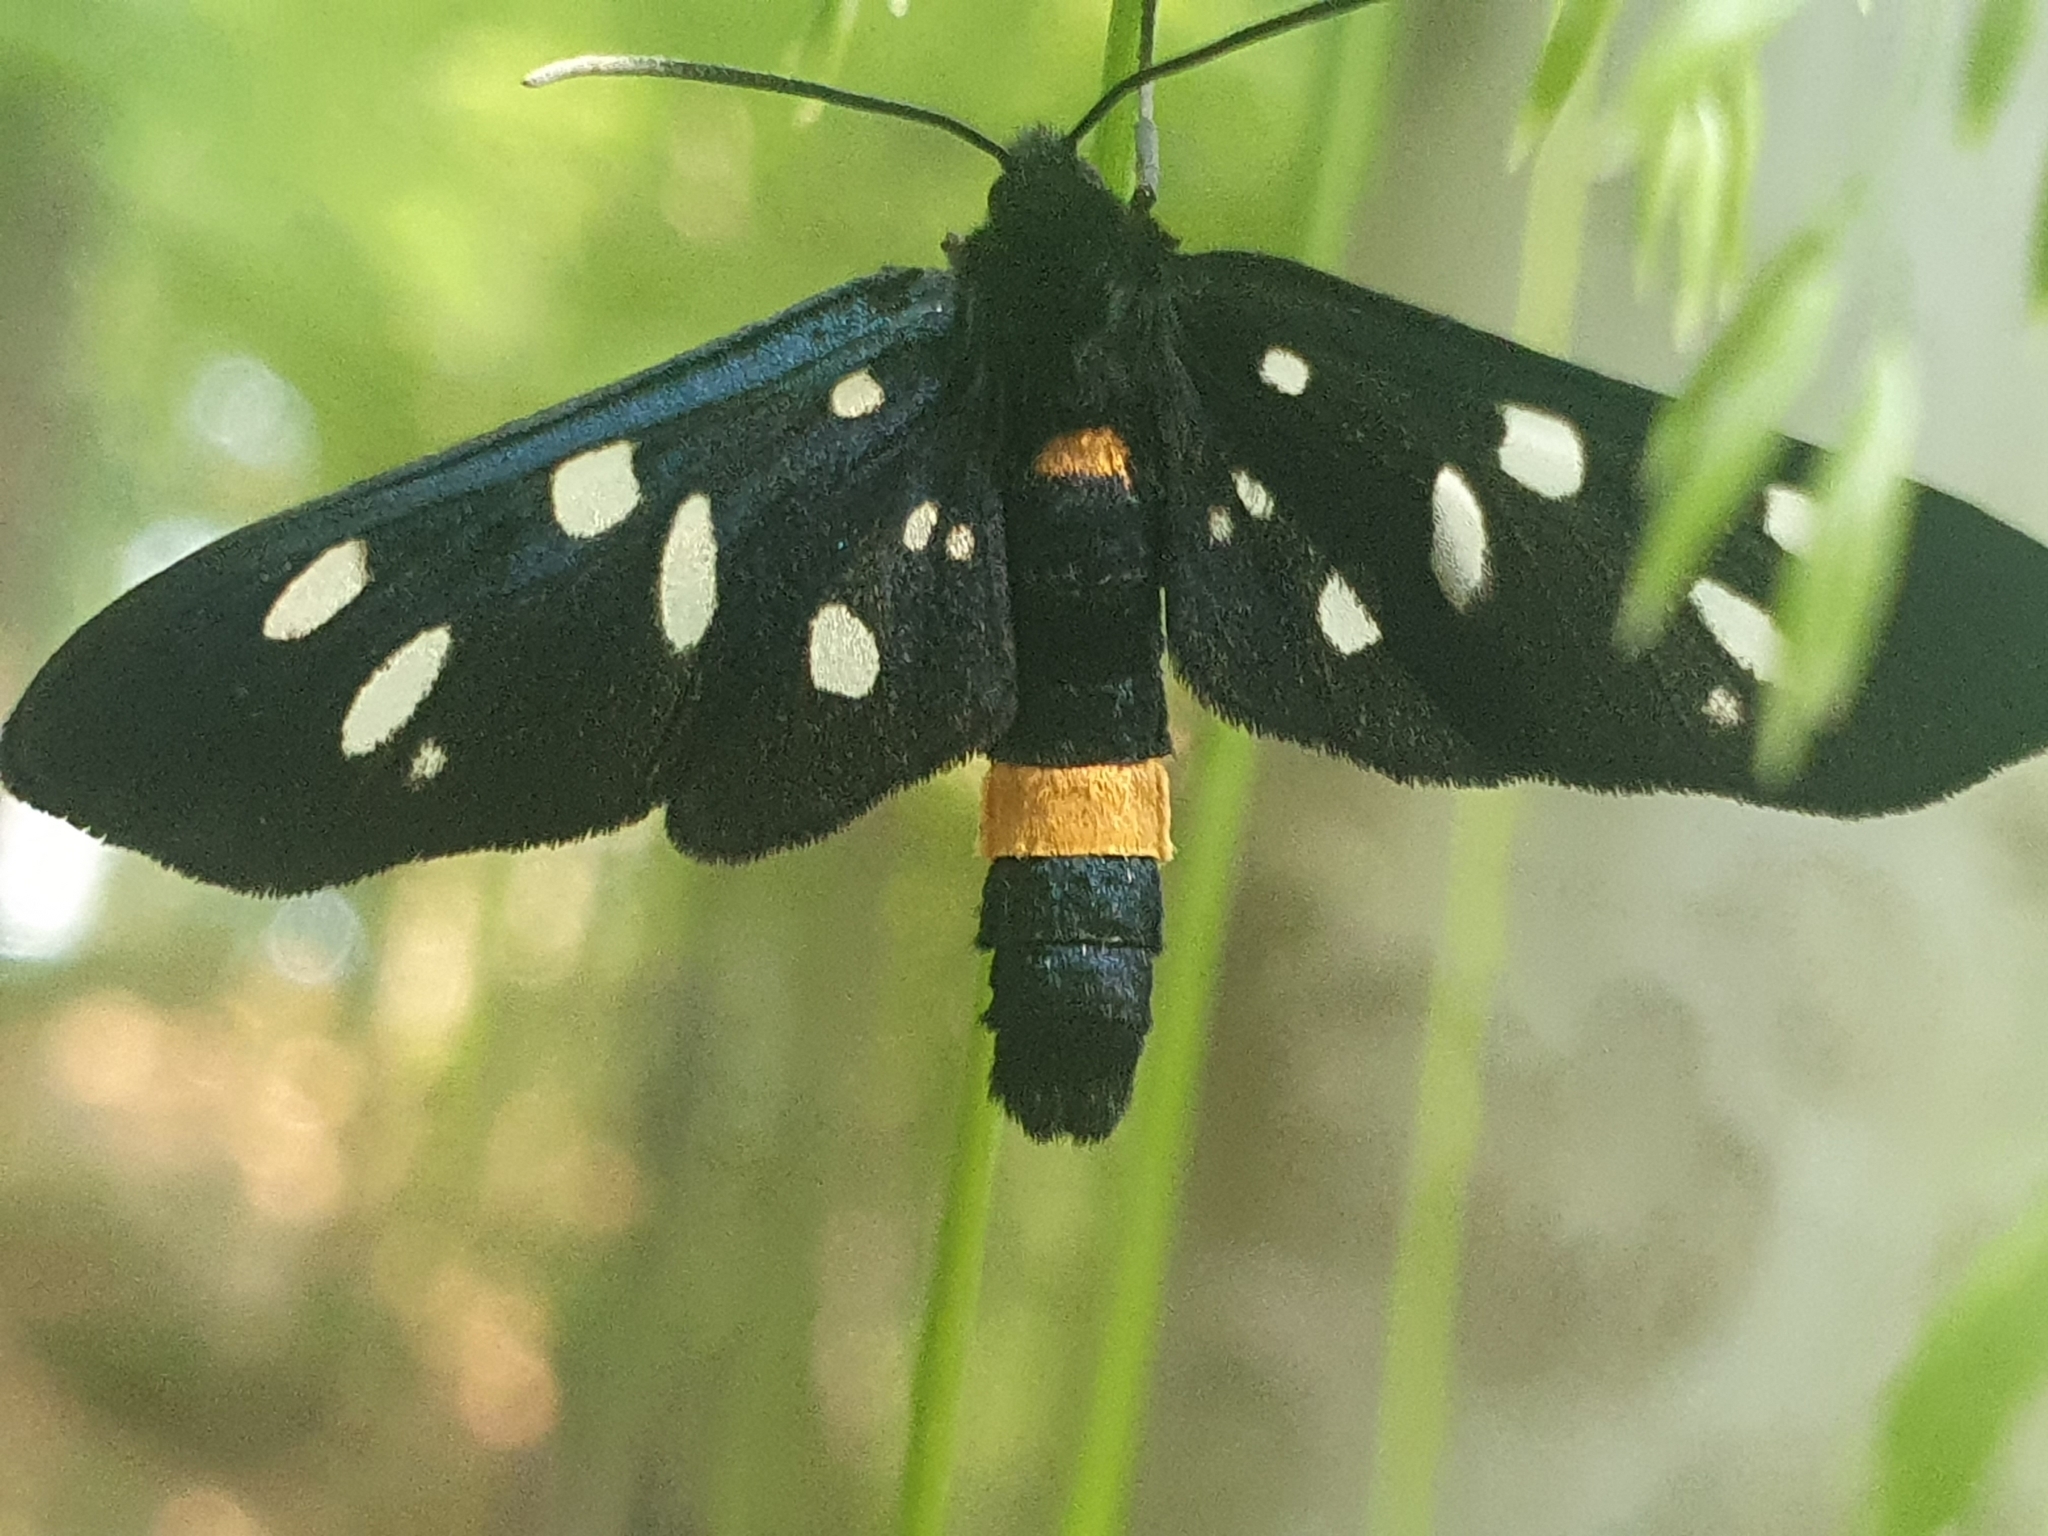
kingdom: Animalia
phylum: Arthropoda
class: Insecta
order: Lepidoptera
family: Erebidae
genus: Amata
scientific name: Amata phegea
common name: Nine-spotted
